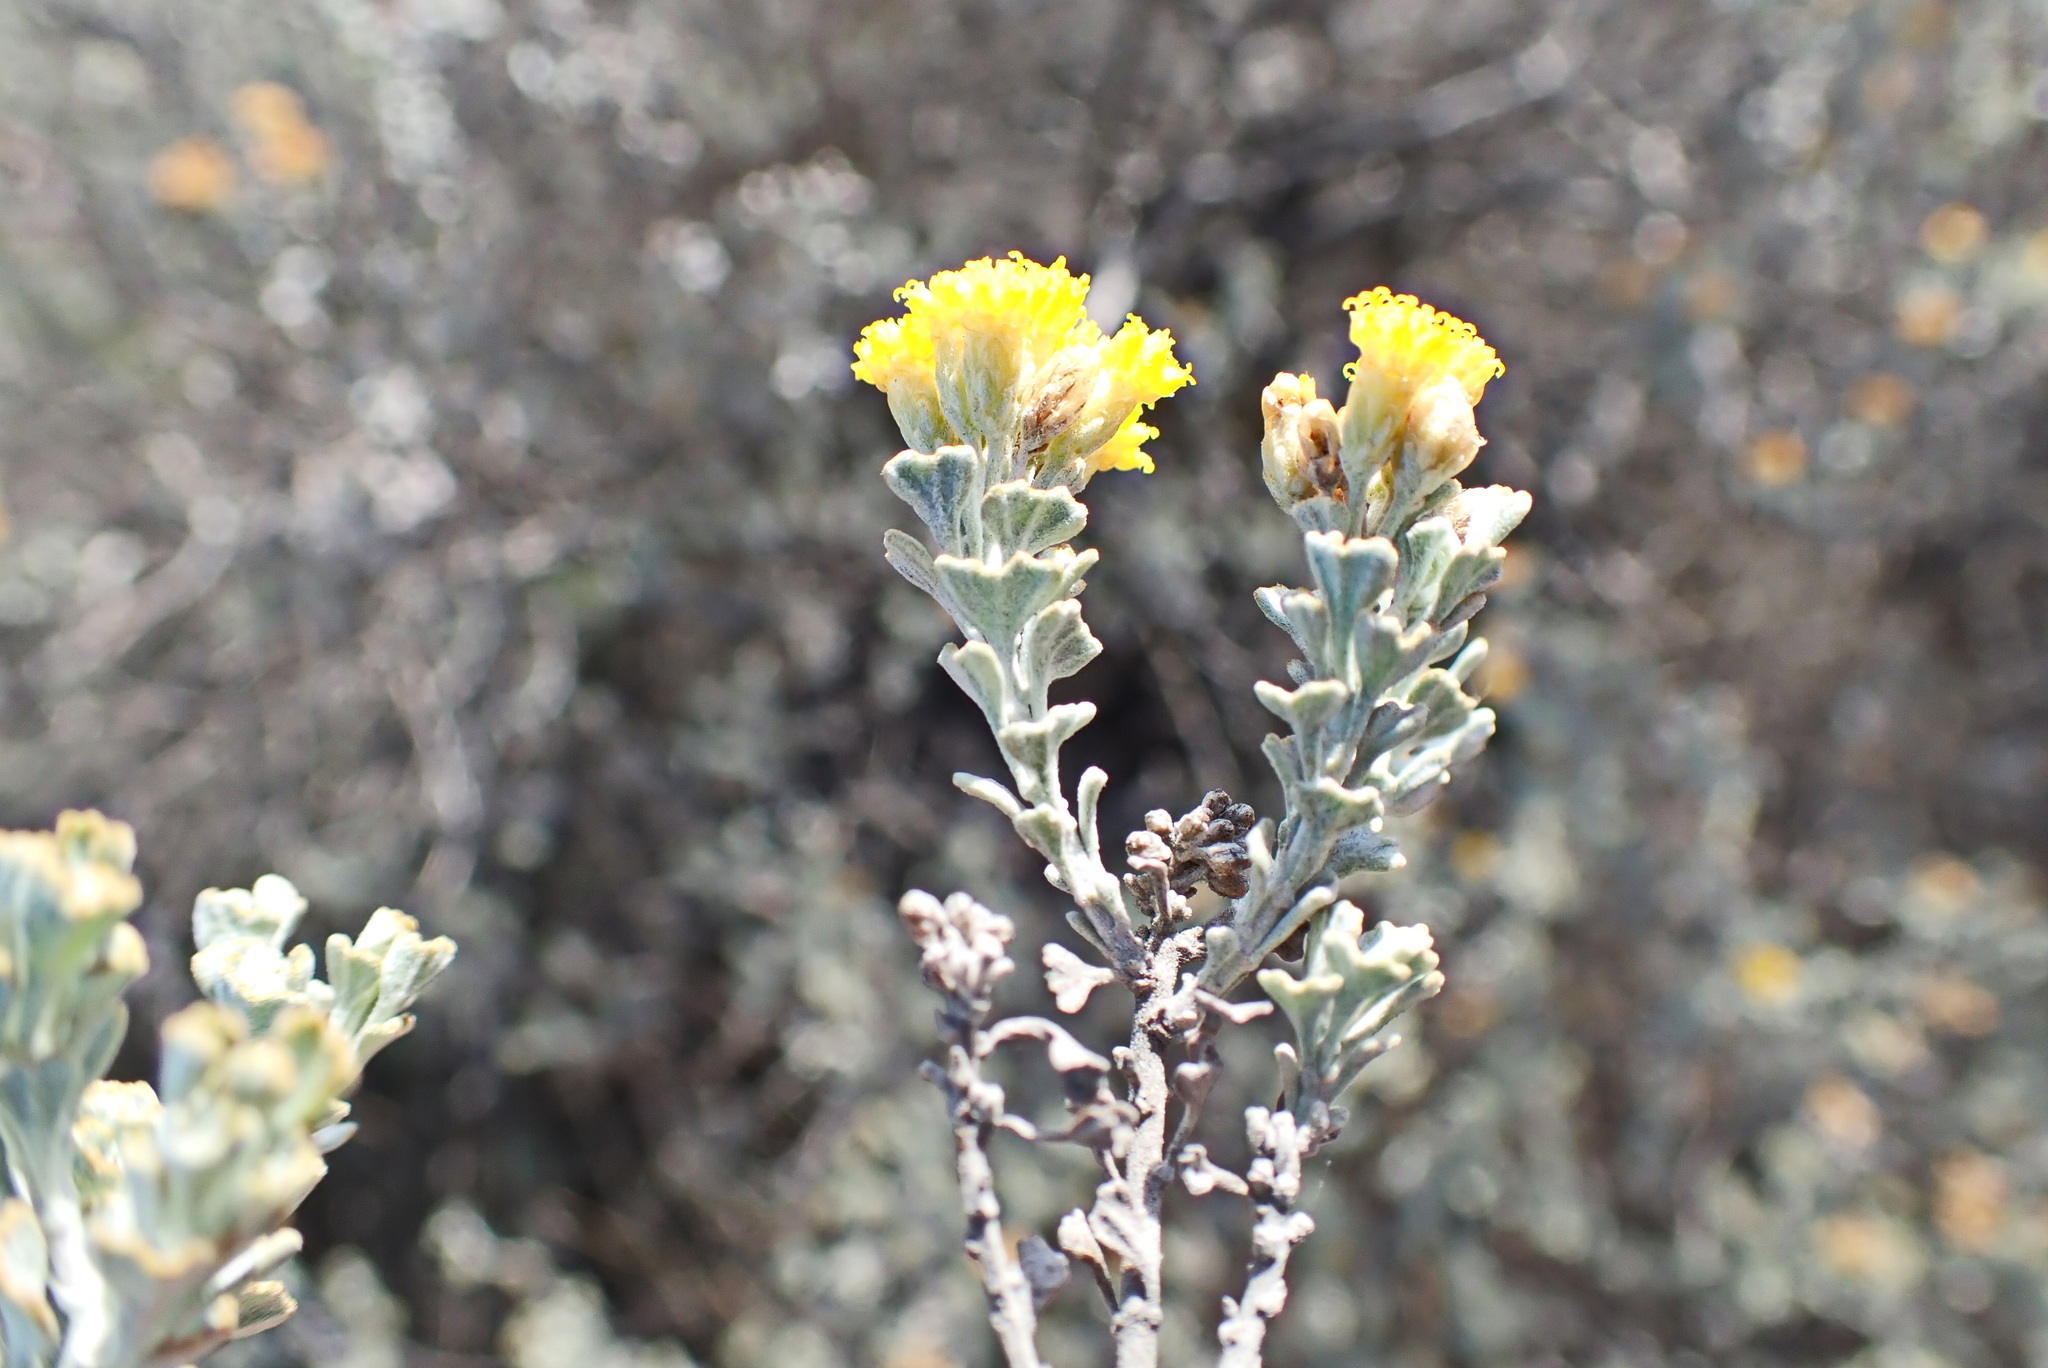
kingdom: Plantae
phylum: Tracheophyta
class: Magnoliopsida
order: Asterales
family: Asteraceae
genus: Athanasia
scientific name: Athanasia trifurcata
